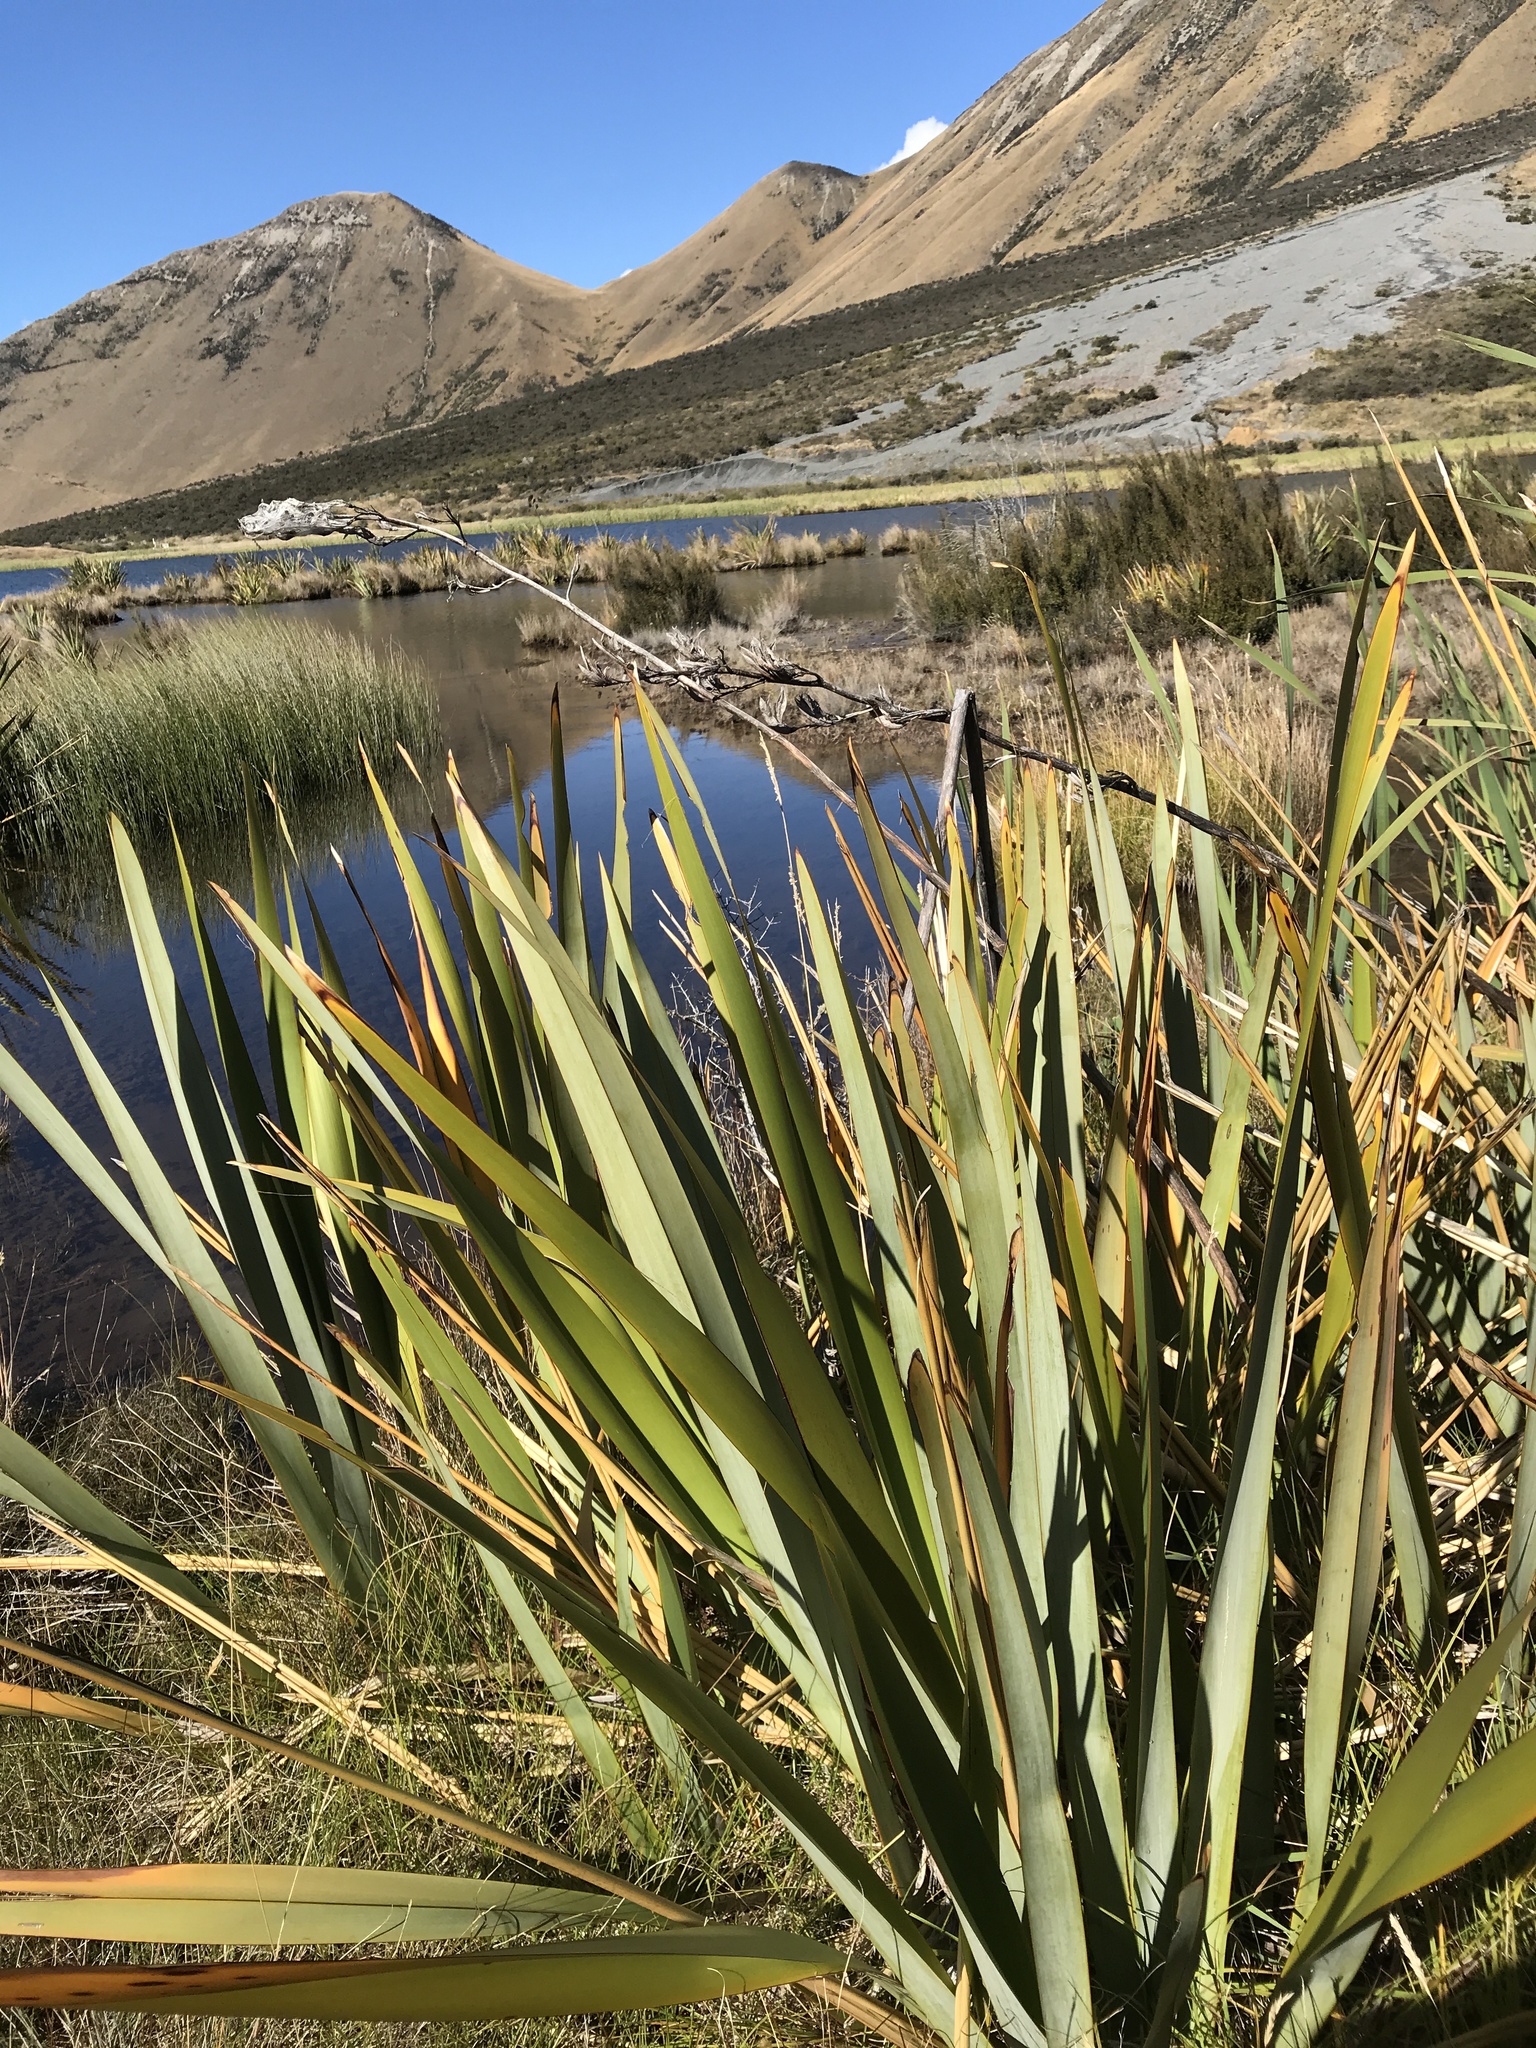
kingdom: Plantae
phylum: Tracheophyta
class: Liliopsida
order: Asparagales
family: Asphodelaceae
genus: Phormium
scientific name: Phormium tenax
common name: New zealand flax
